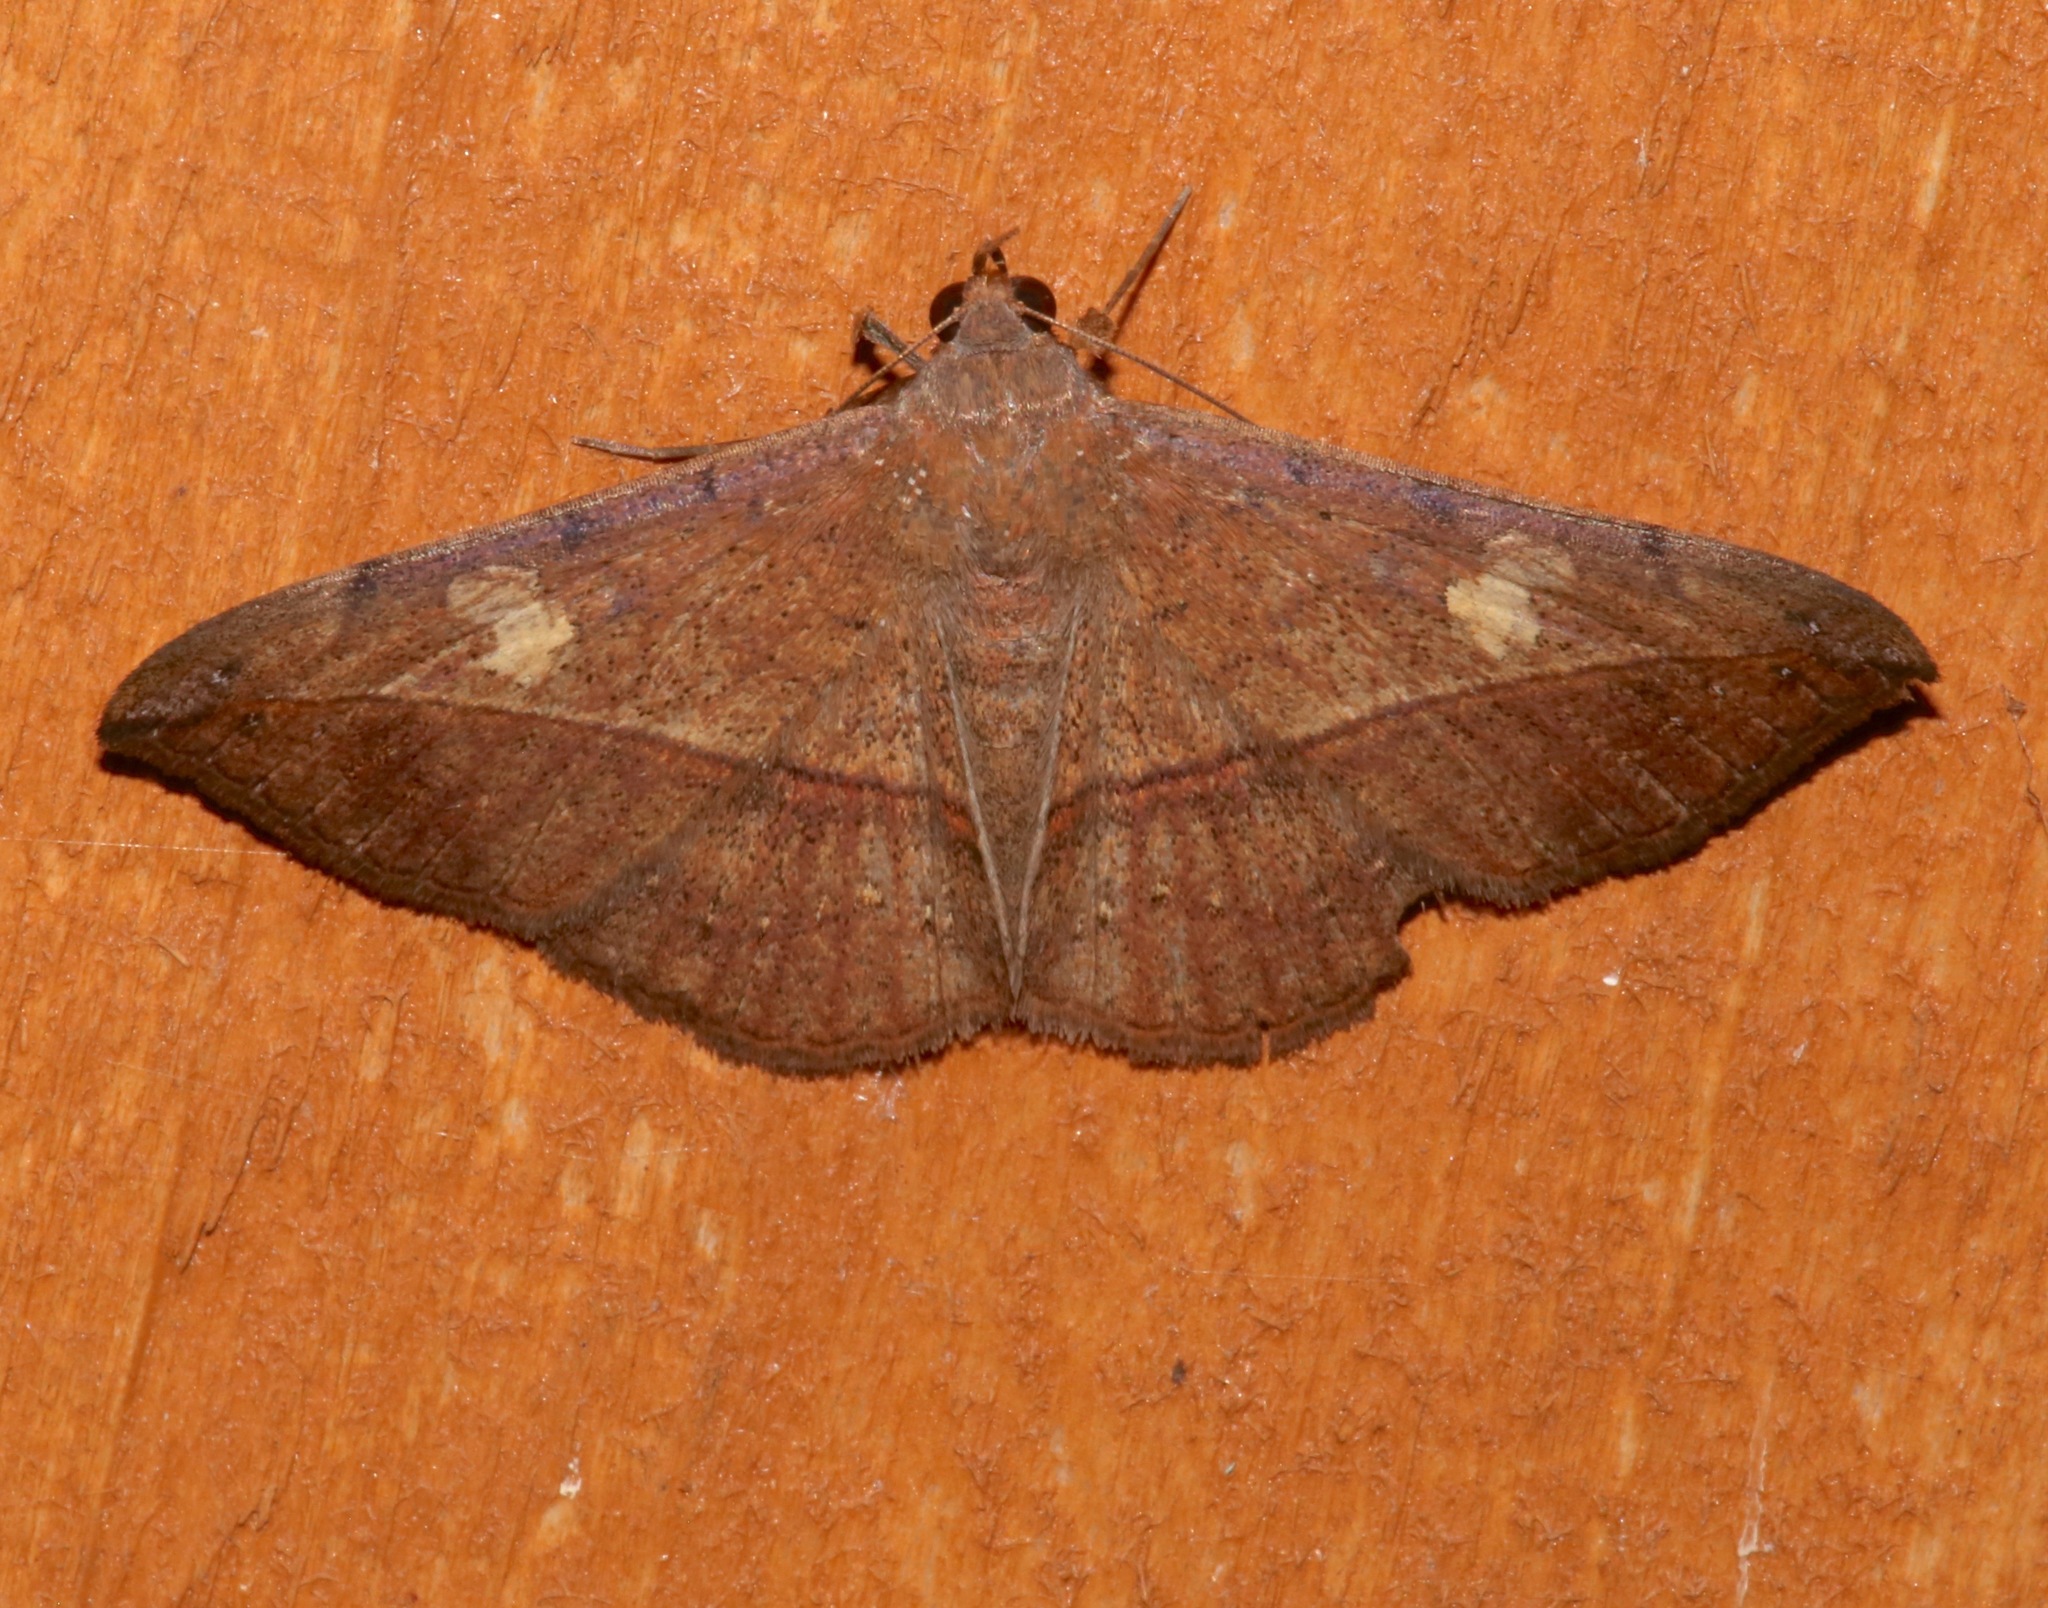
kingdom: Animalia
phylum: Arthropoda
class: Insecta
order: Lepidoptera
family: Erebidae
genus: Anticarsia
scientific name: Anticarsia gemmatalis
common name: Cutworm moth
